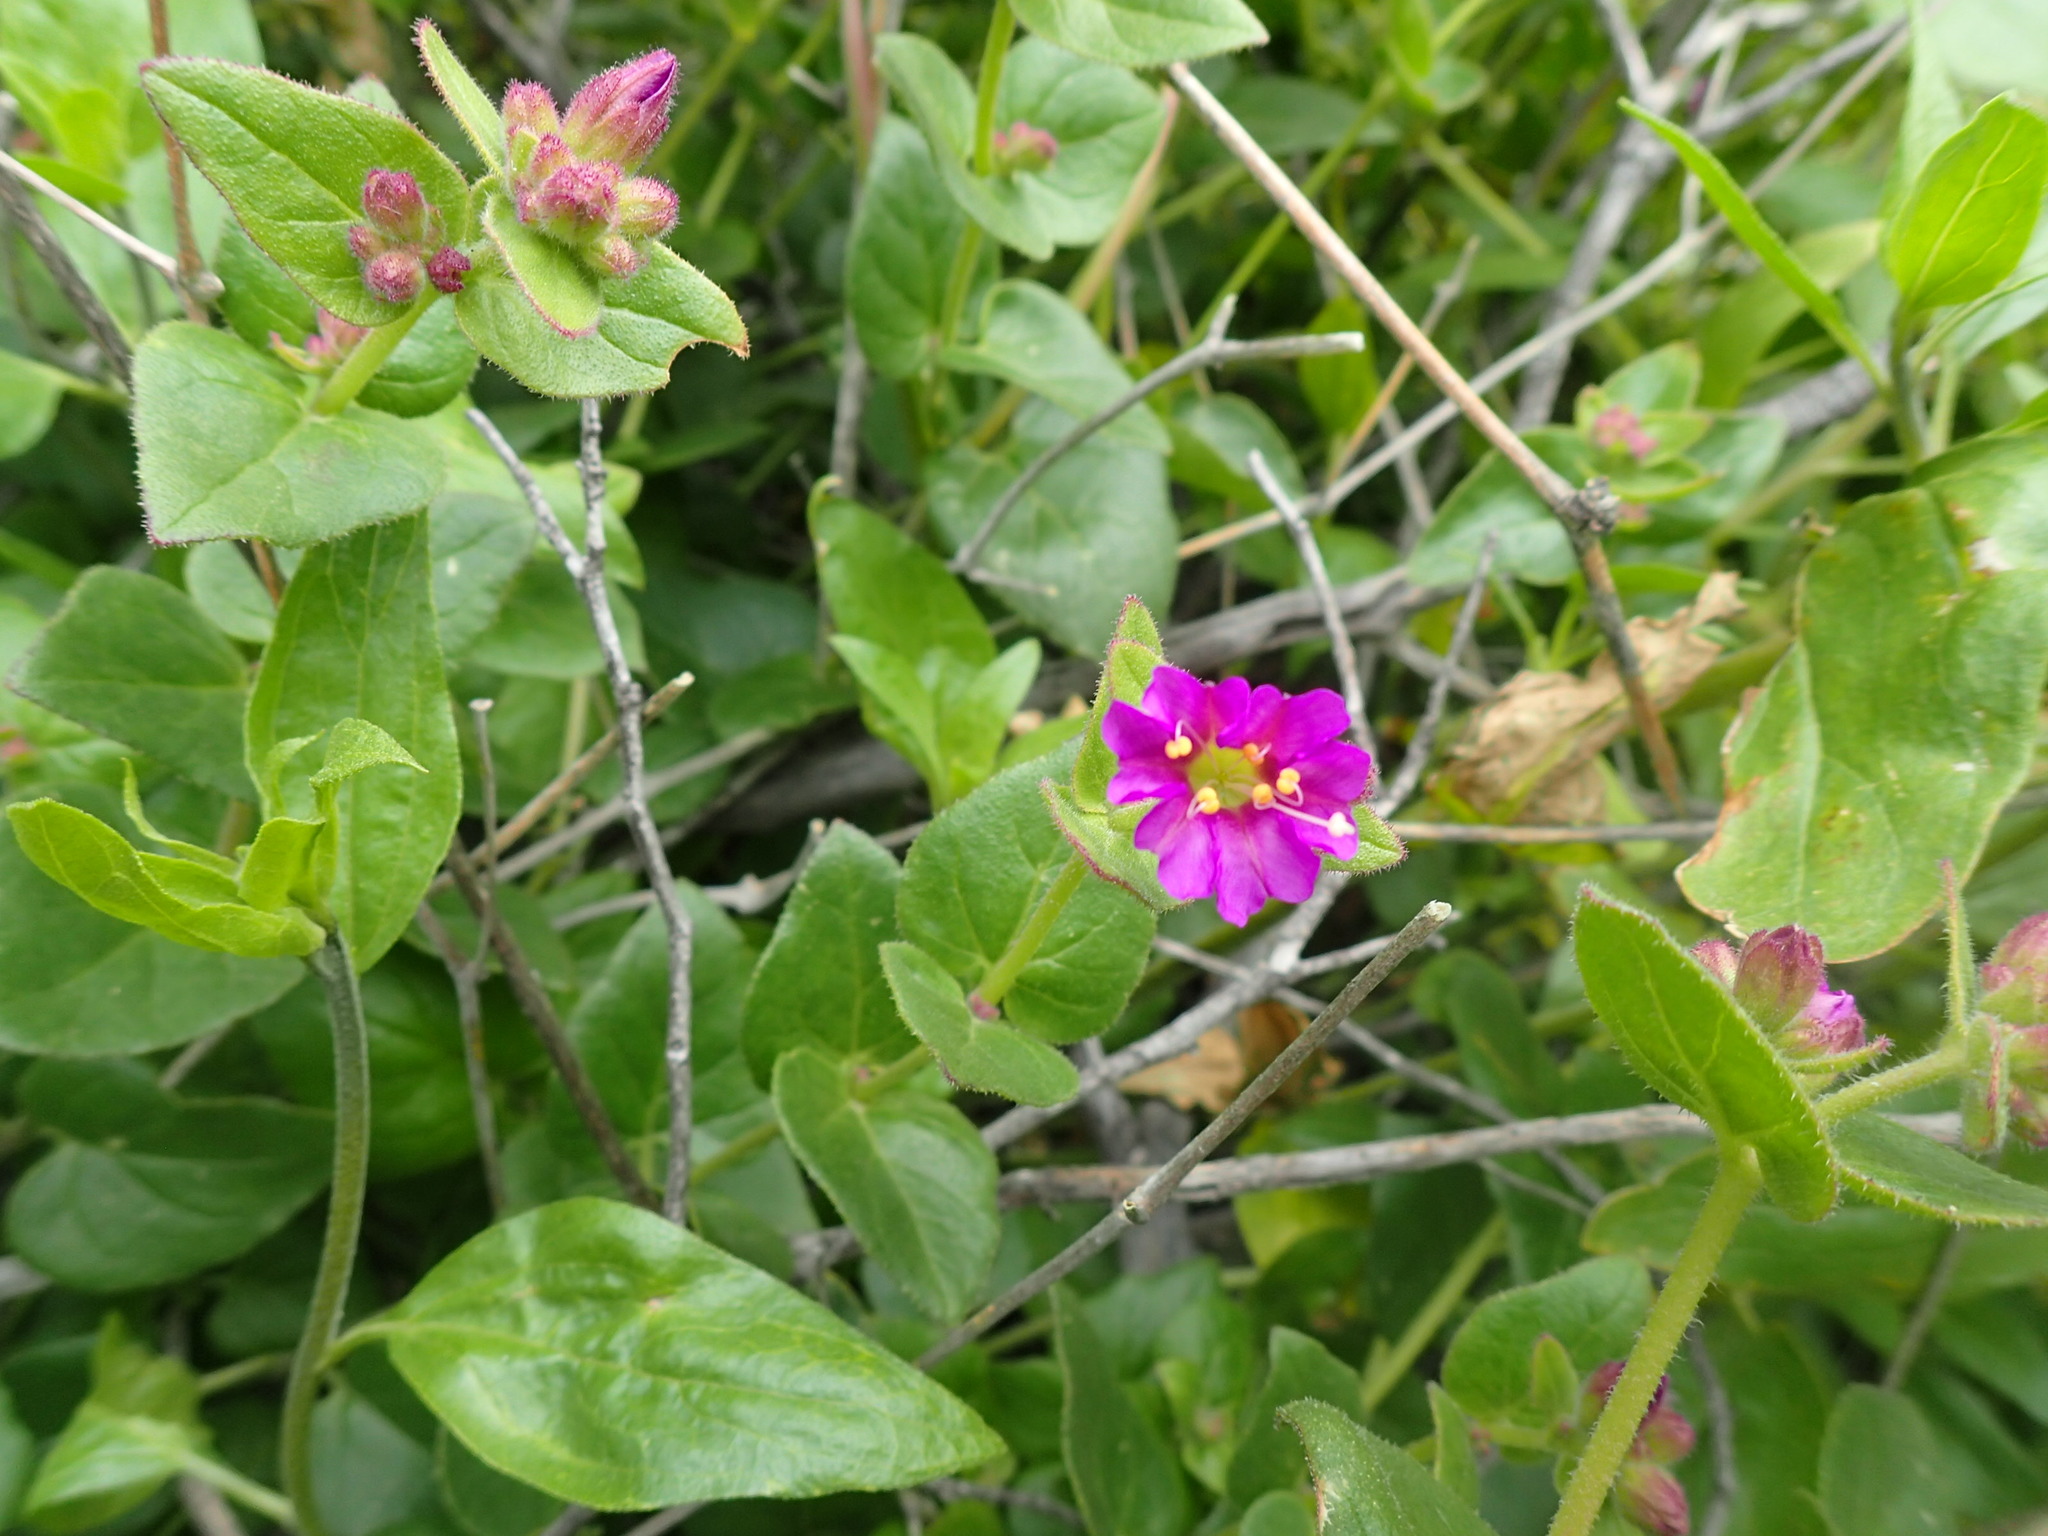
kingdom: Plantae
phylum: Tracheophyta
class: Magnoliopsida
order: Caryophyllales
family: Nyctaginaceae
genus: Mirabilis
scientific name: Mirabilis laevis
